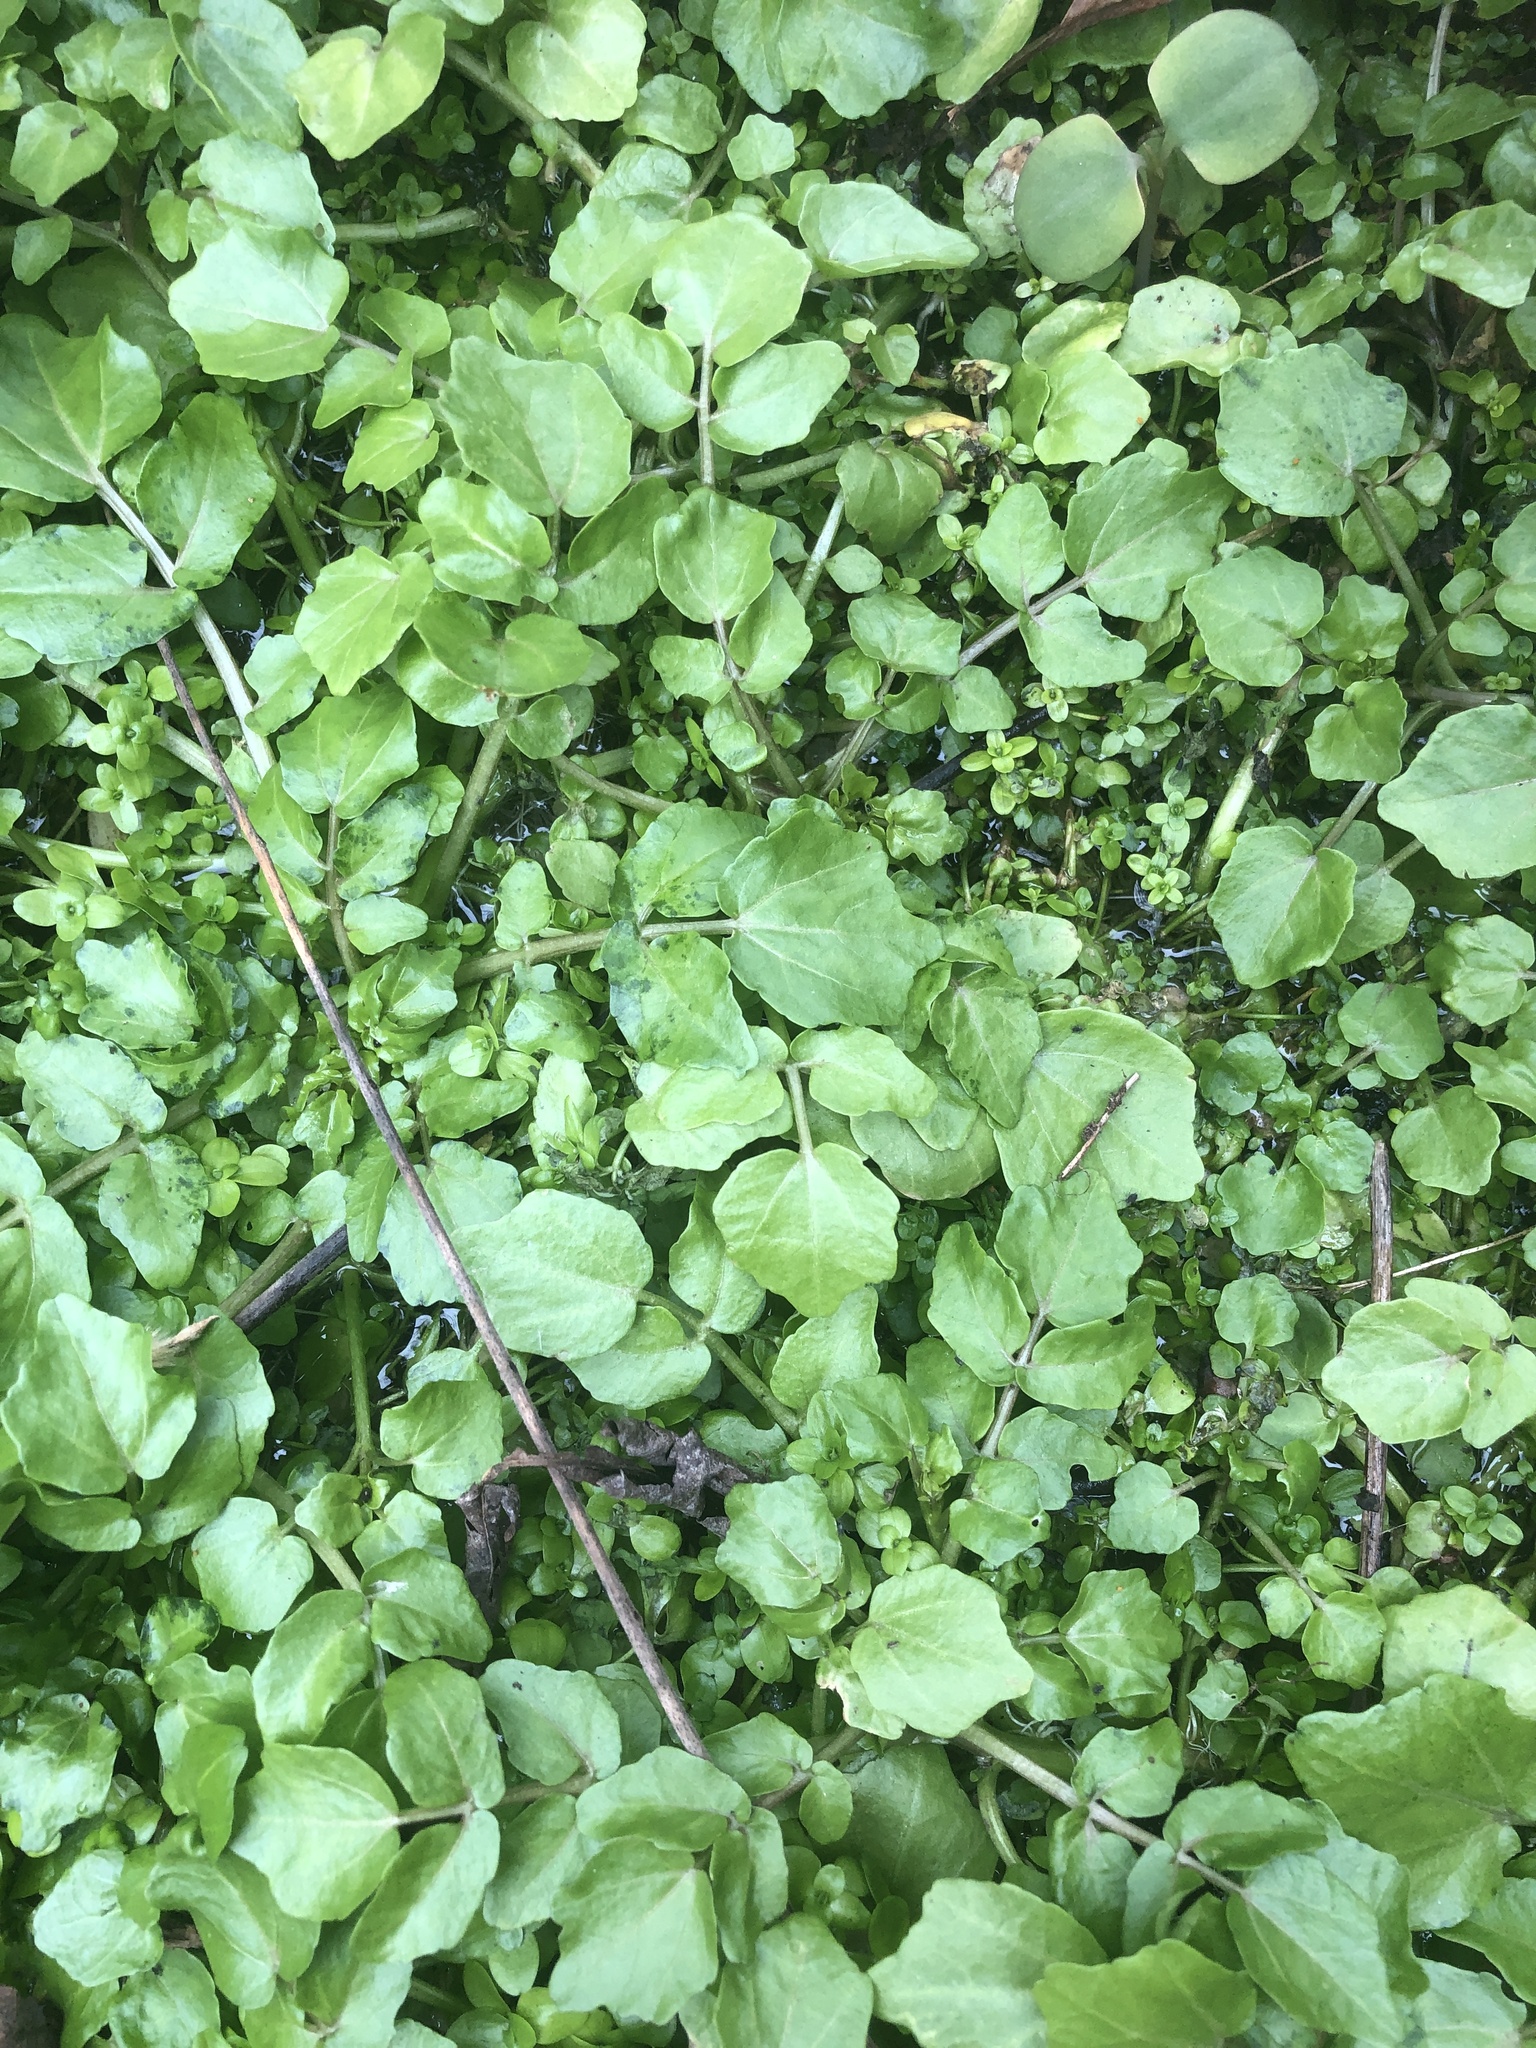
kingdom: Plantae
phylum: Tracheophyta
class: Magnoliopsida
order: Brassicales
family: Brassicaceae
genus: Nasturtium
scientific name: Nasturtium officinale
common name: Watercress
